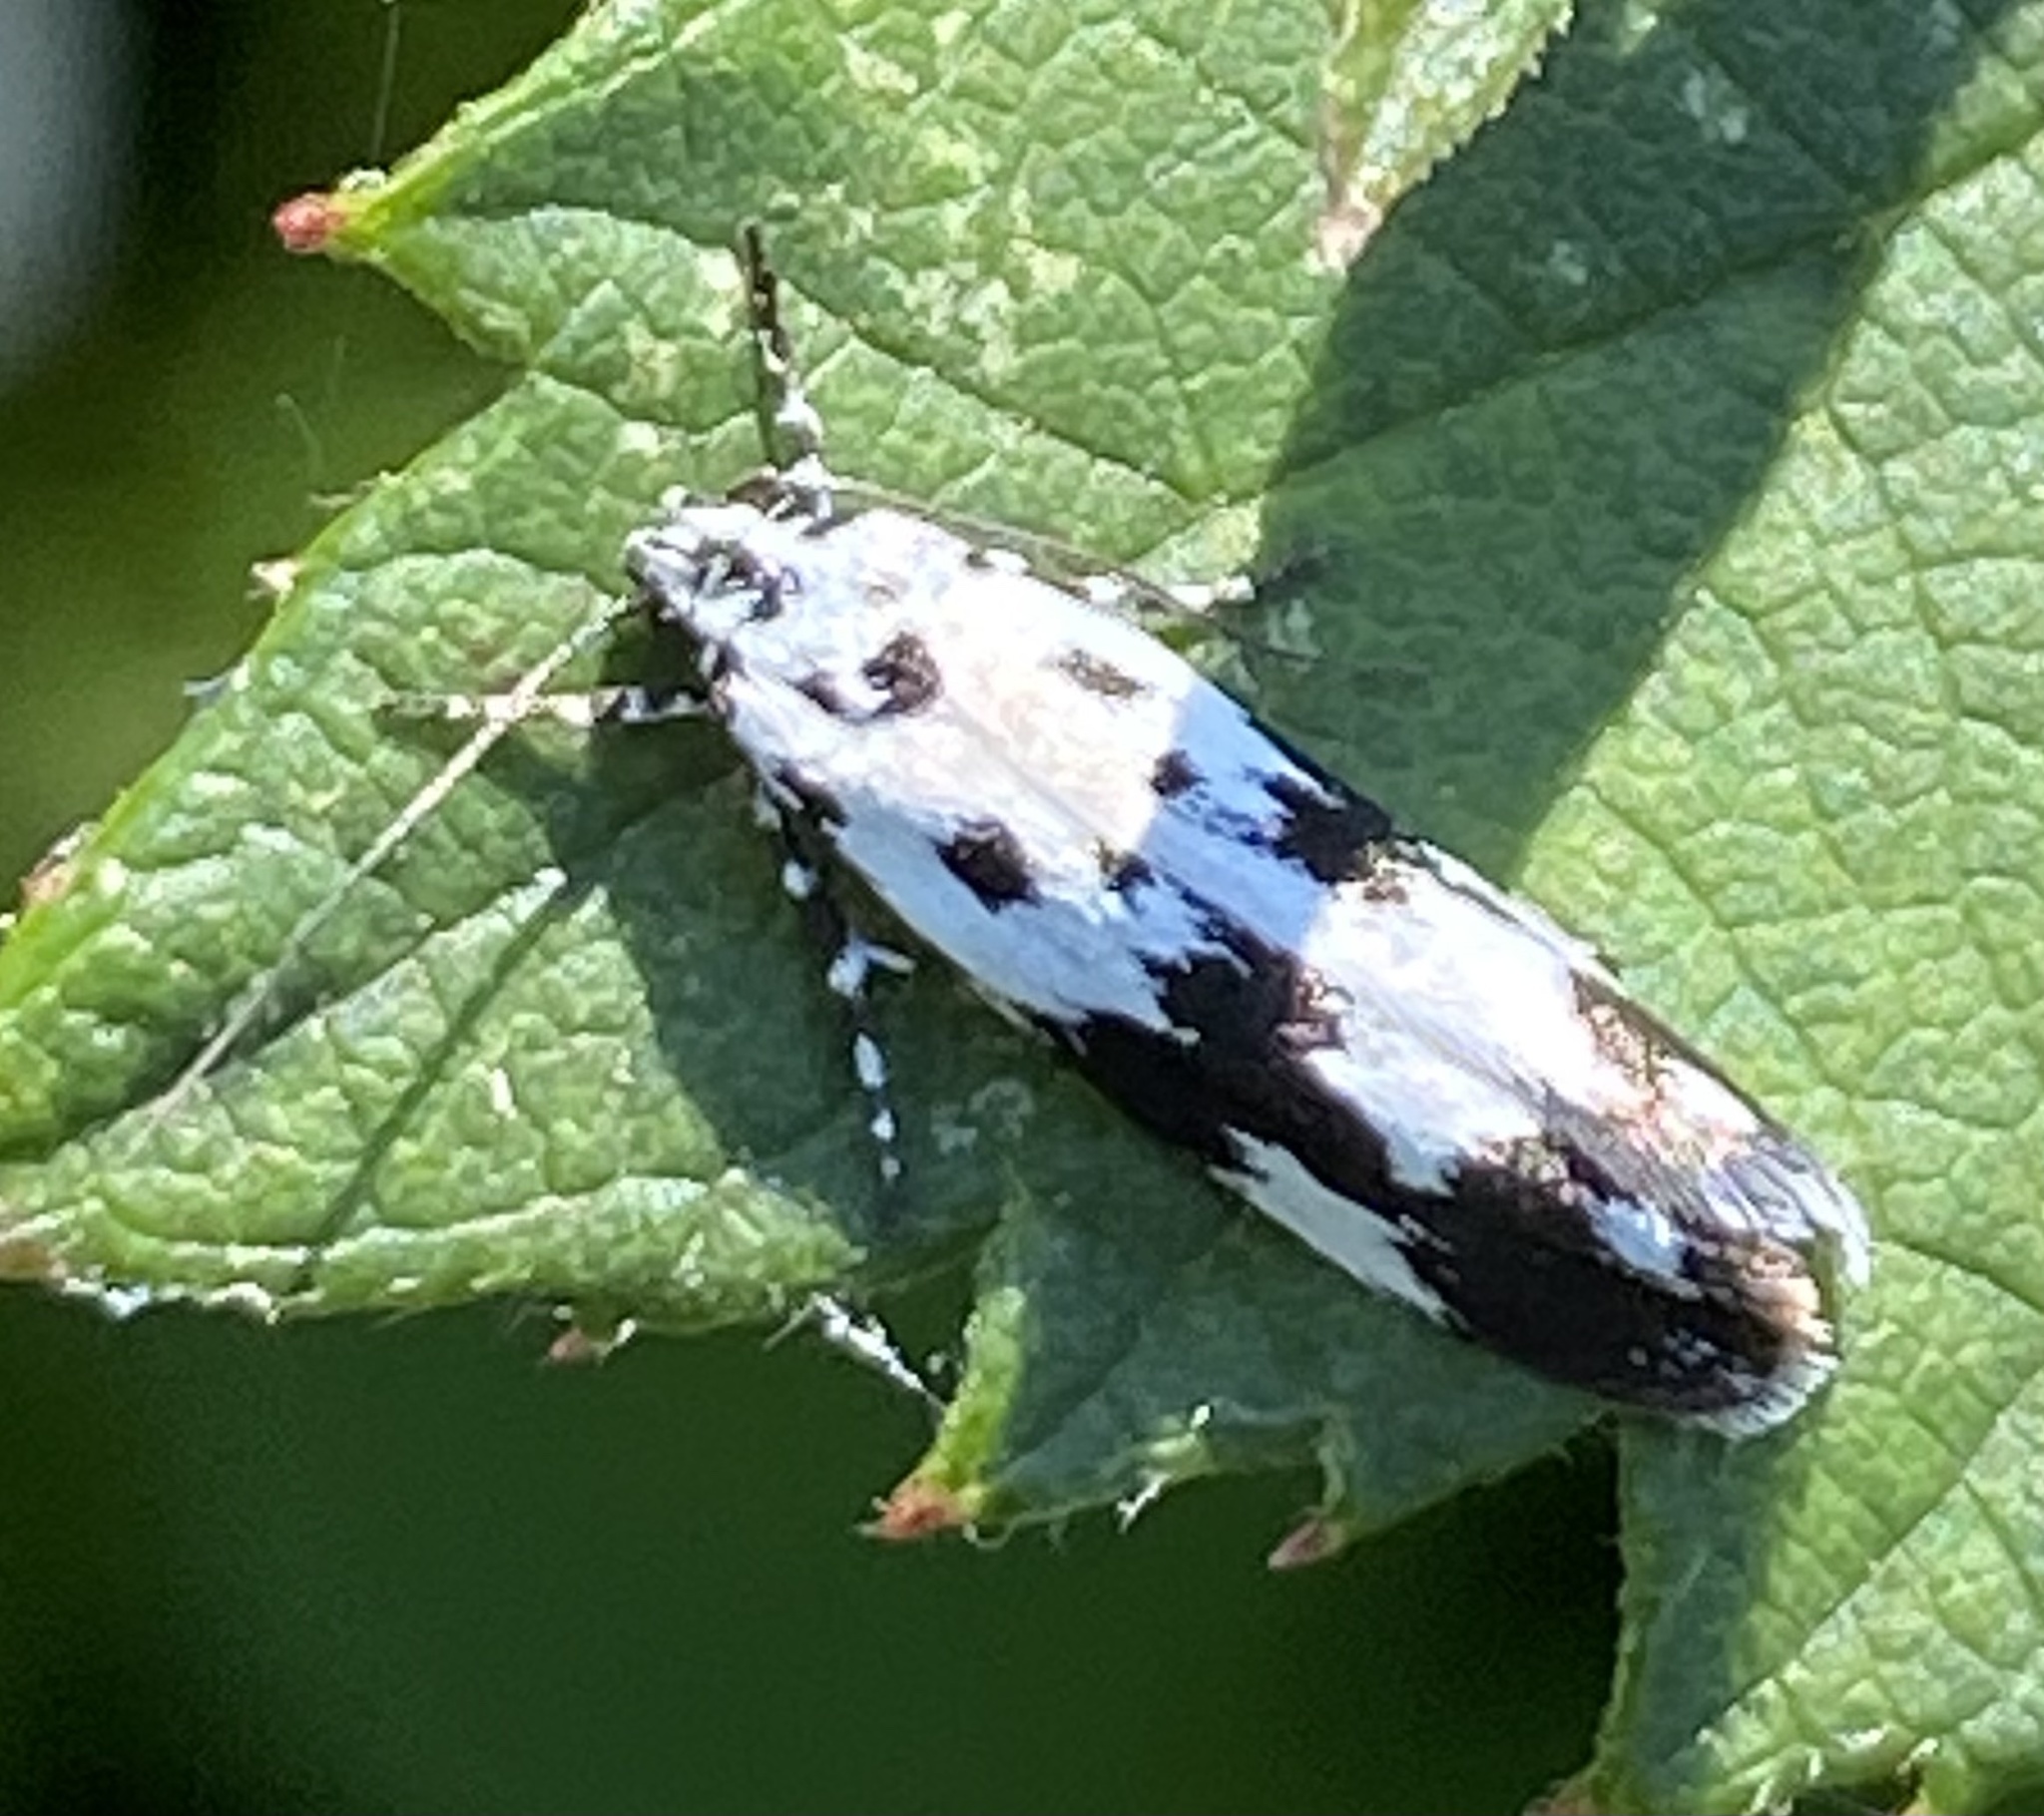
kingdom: Animalia
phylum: Arthropoda
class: Insecta
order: Lepidoptera
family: Ethmiidae
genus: Ethmia
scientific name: Ethmia quadrillella
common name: Comfrey ermel
